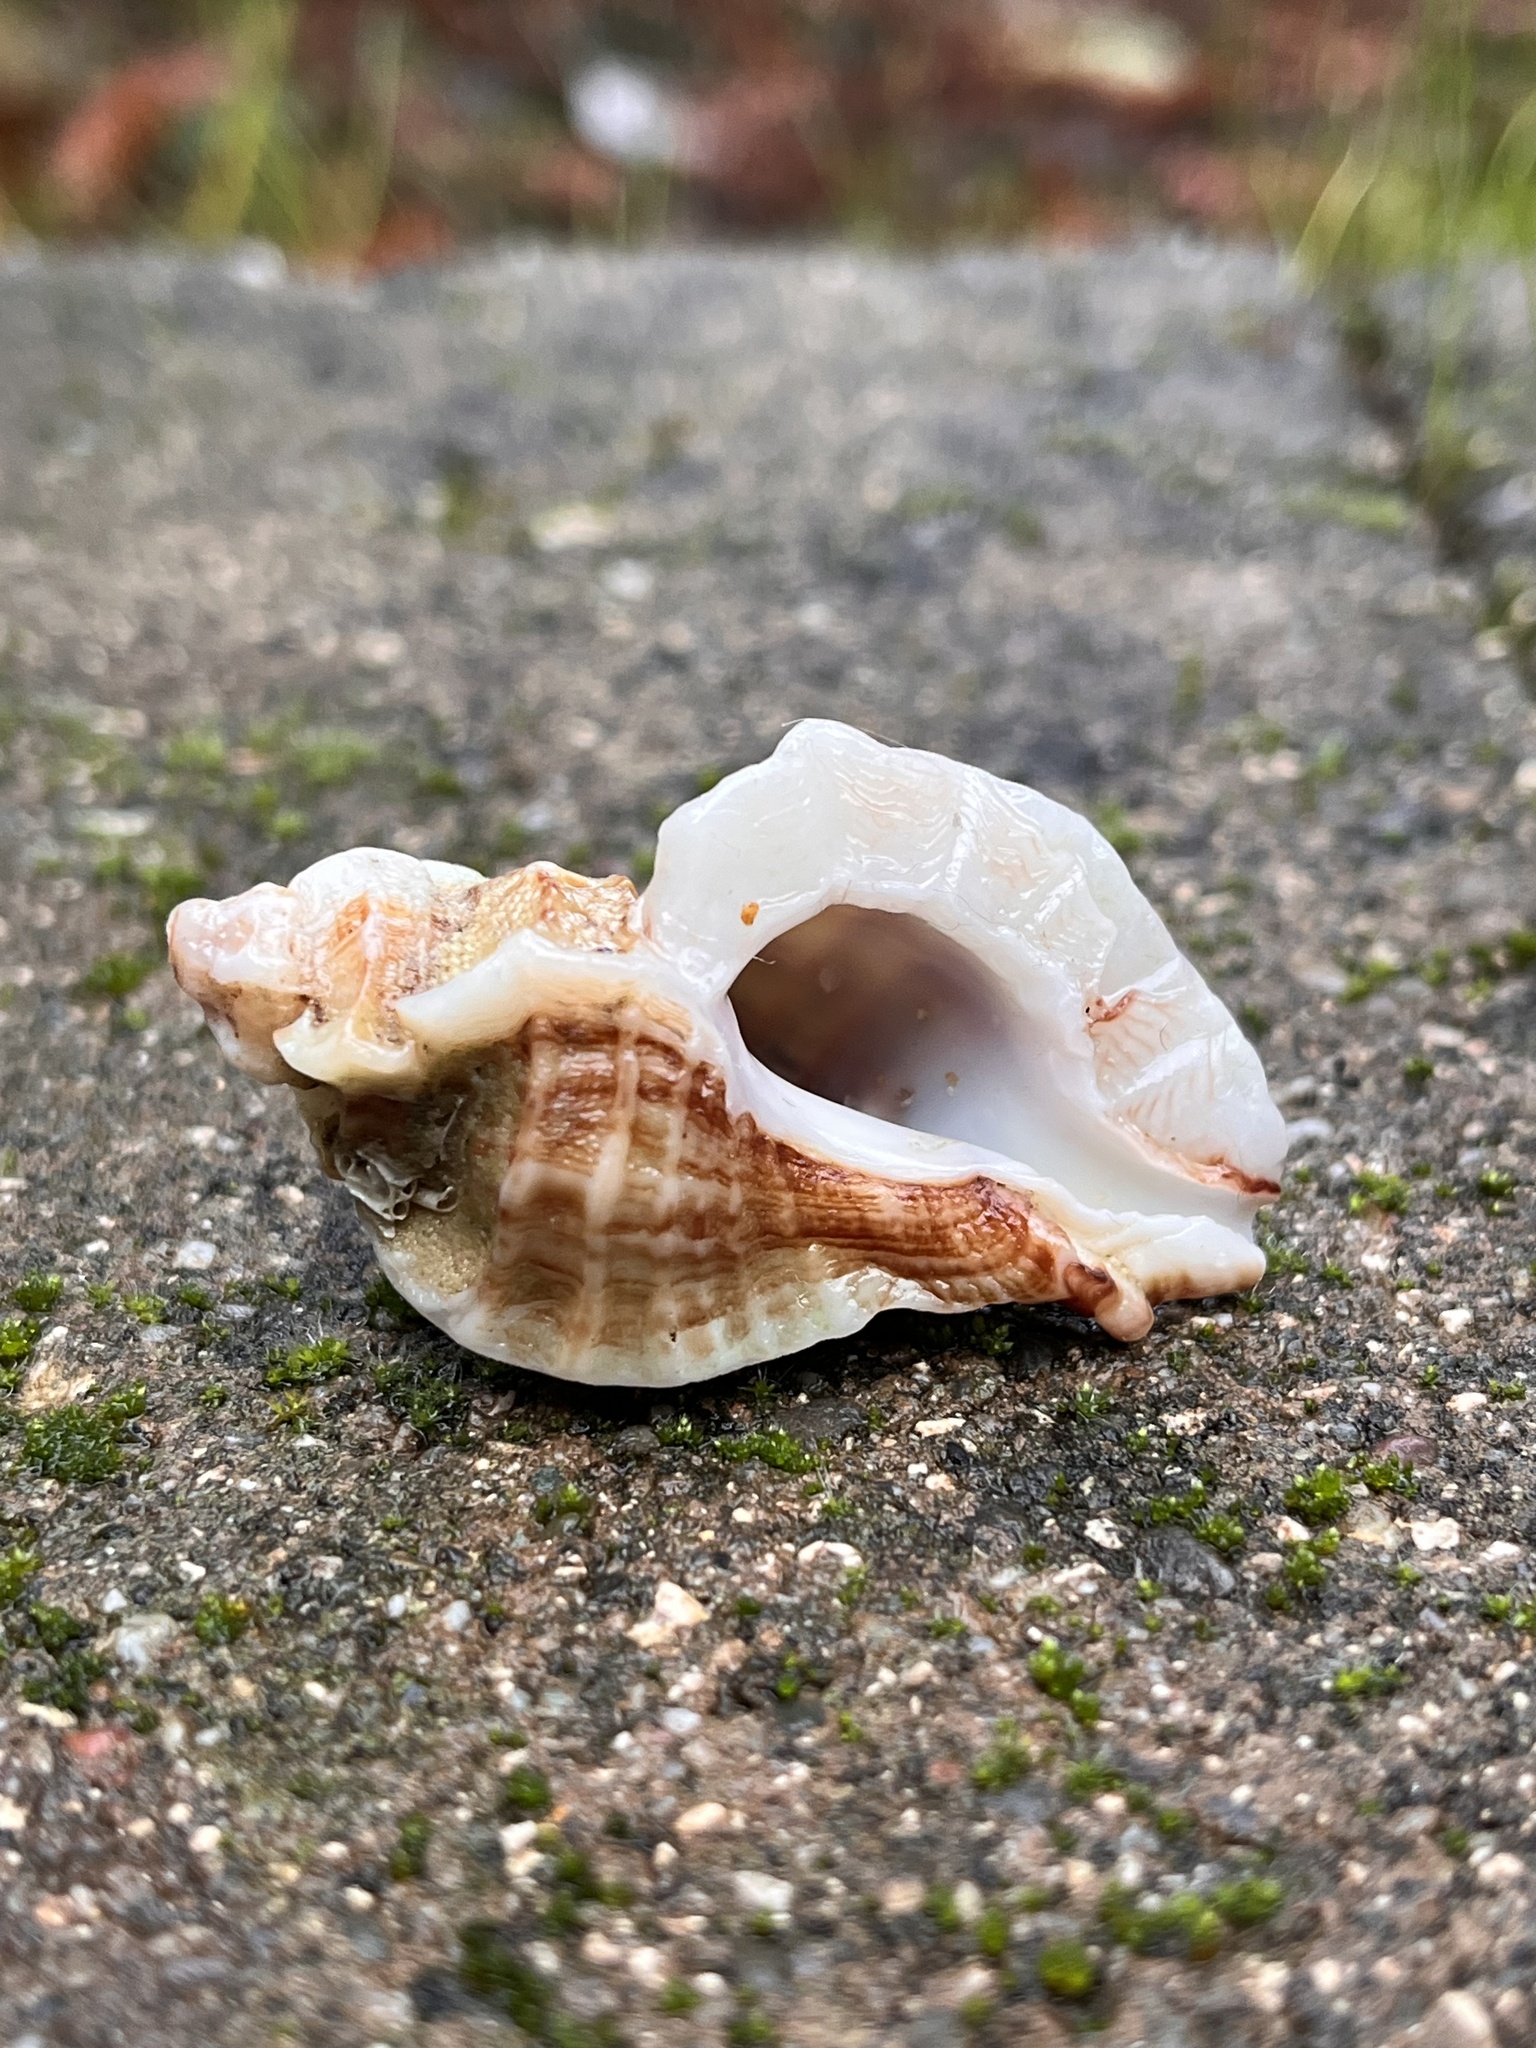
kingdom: Animalia
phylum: Mollusca
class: Gastropoda
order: Neogastropoda
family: Muricidae
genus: Ceratostoma
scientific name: Ceratostoma foliatum
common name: Foliate thorn purpura
